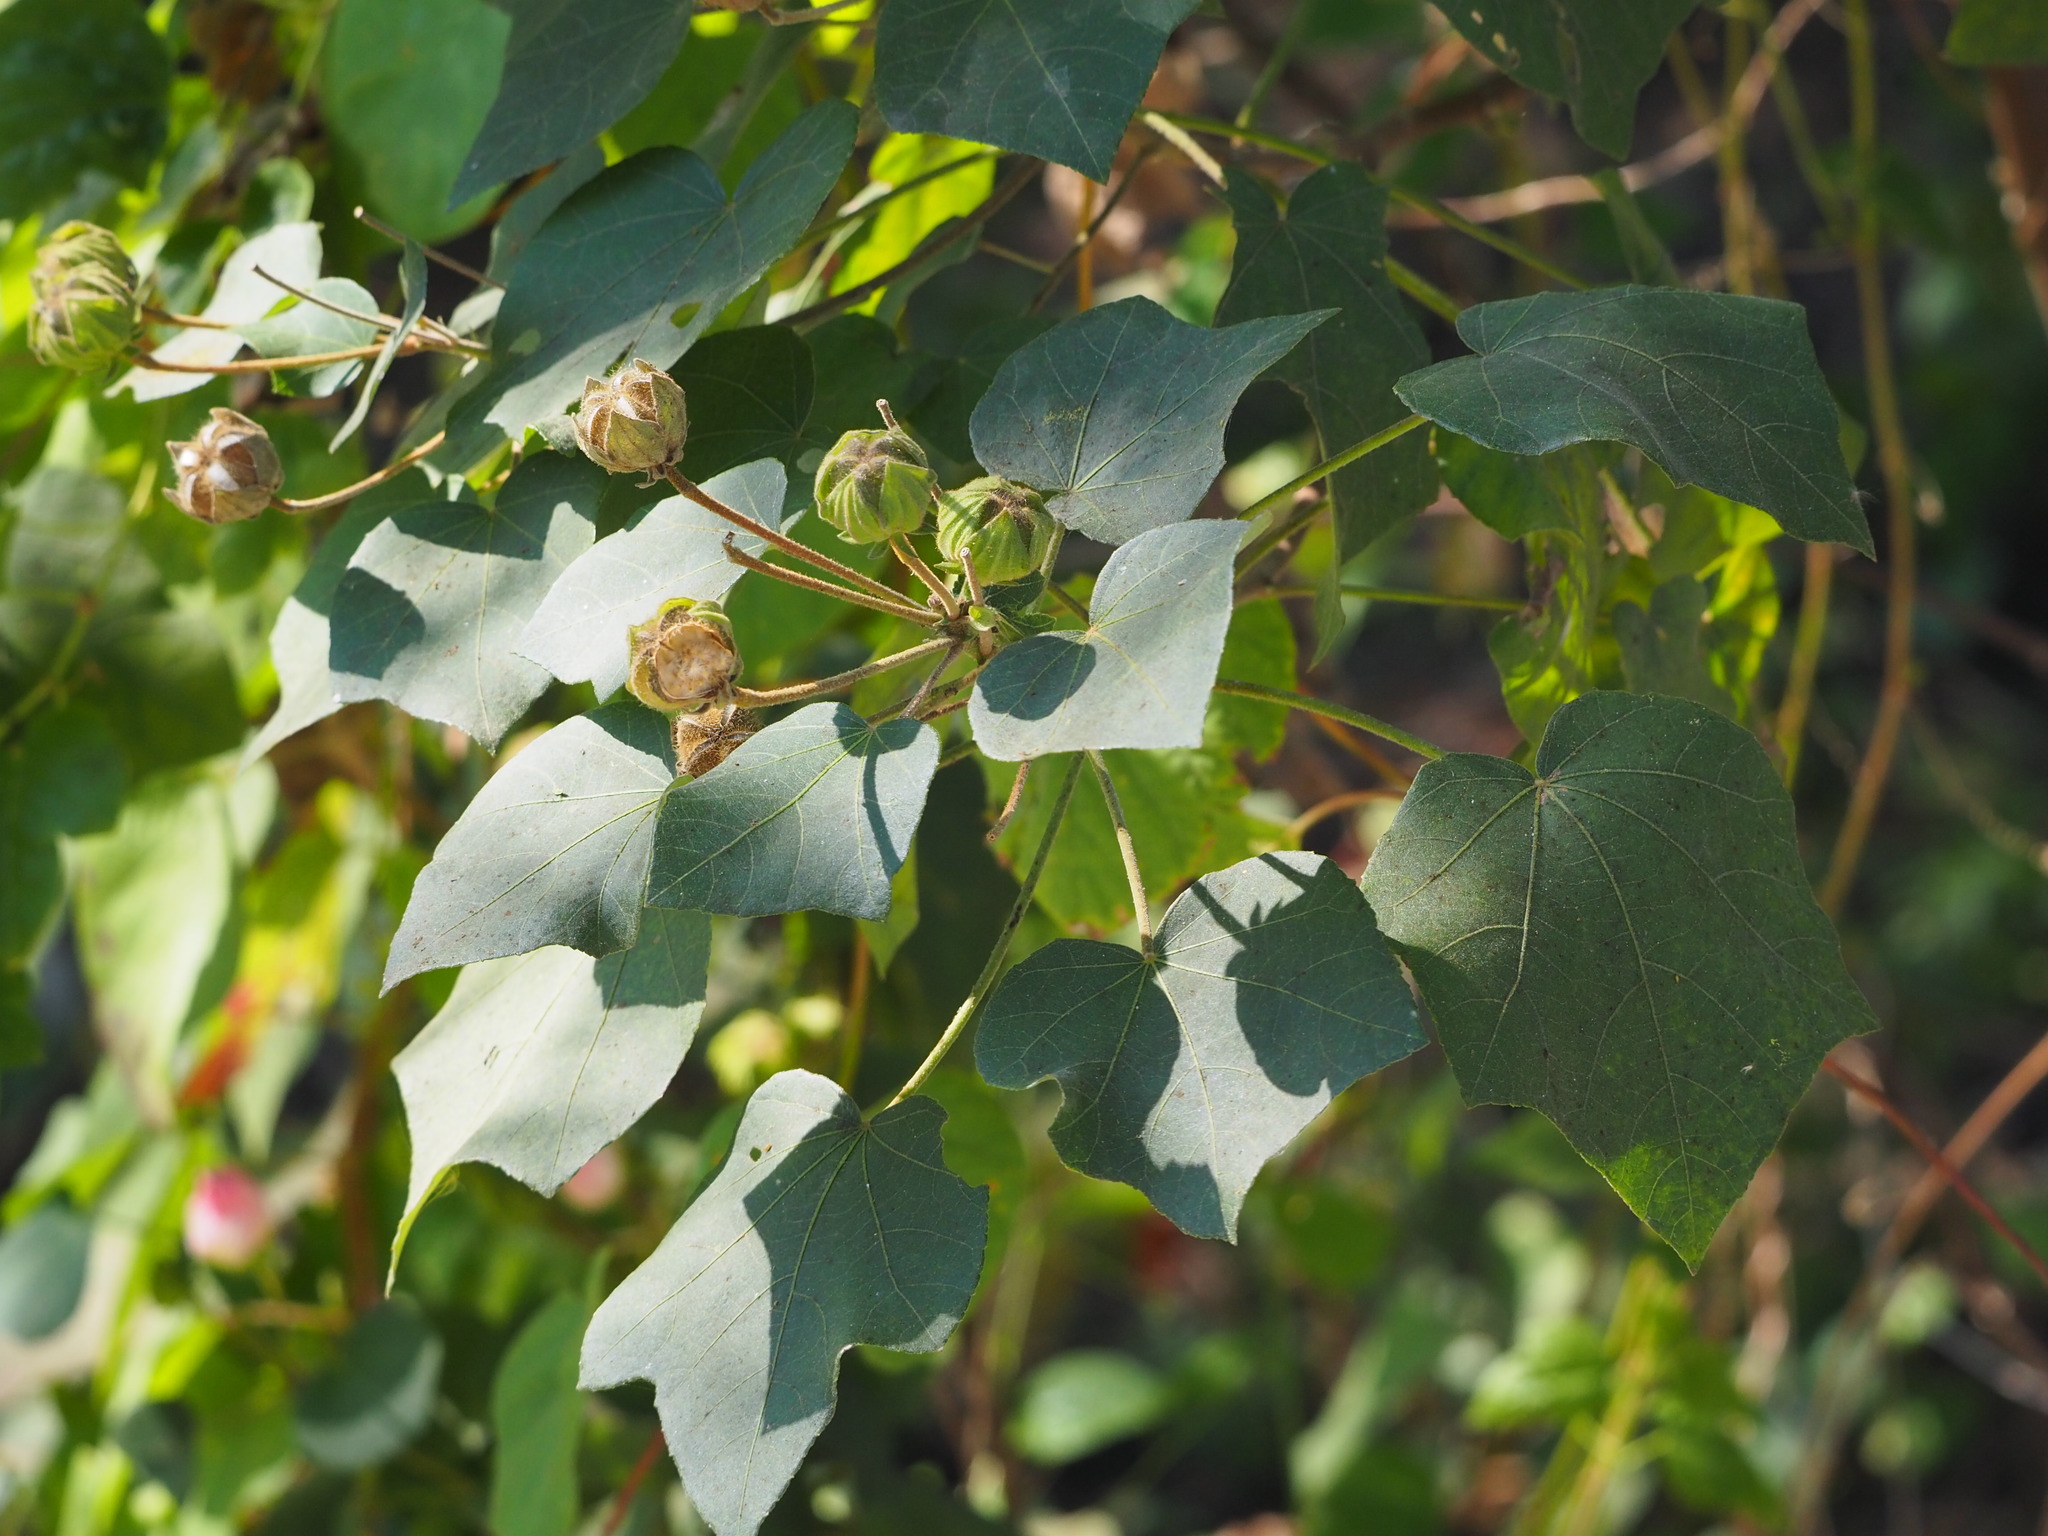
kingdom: Plantae
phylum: Tracheophyta
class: Magnoliopsida
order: Malvales
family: Malvaceae
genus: Hibiscus
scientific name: Hibiscus taiwanensis
